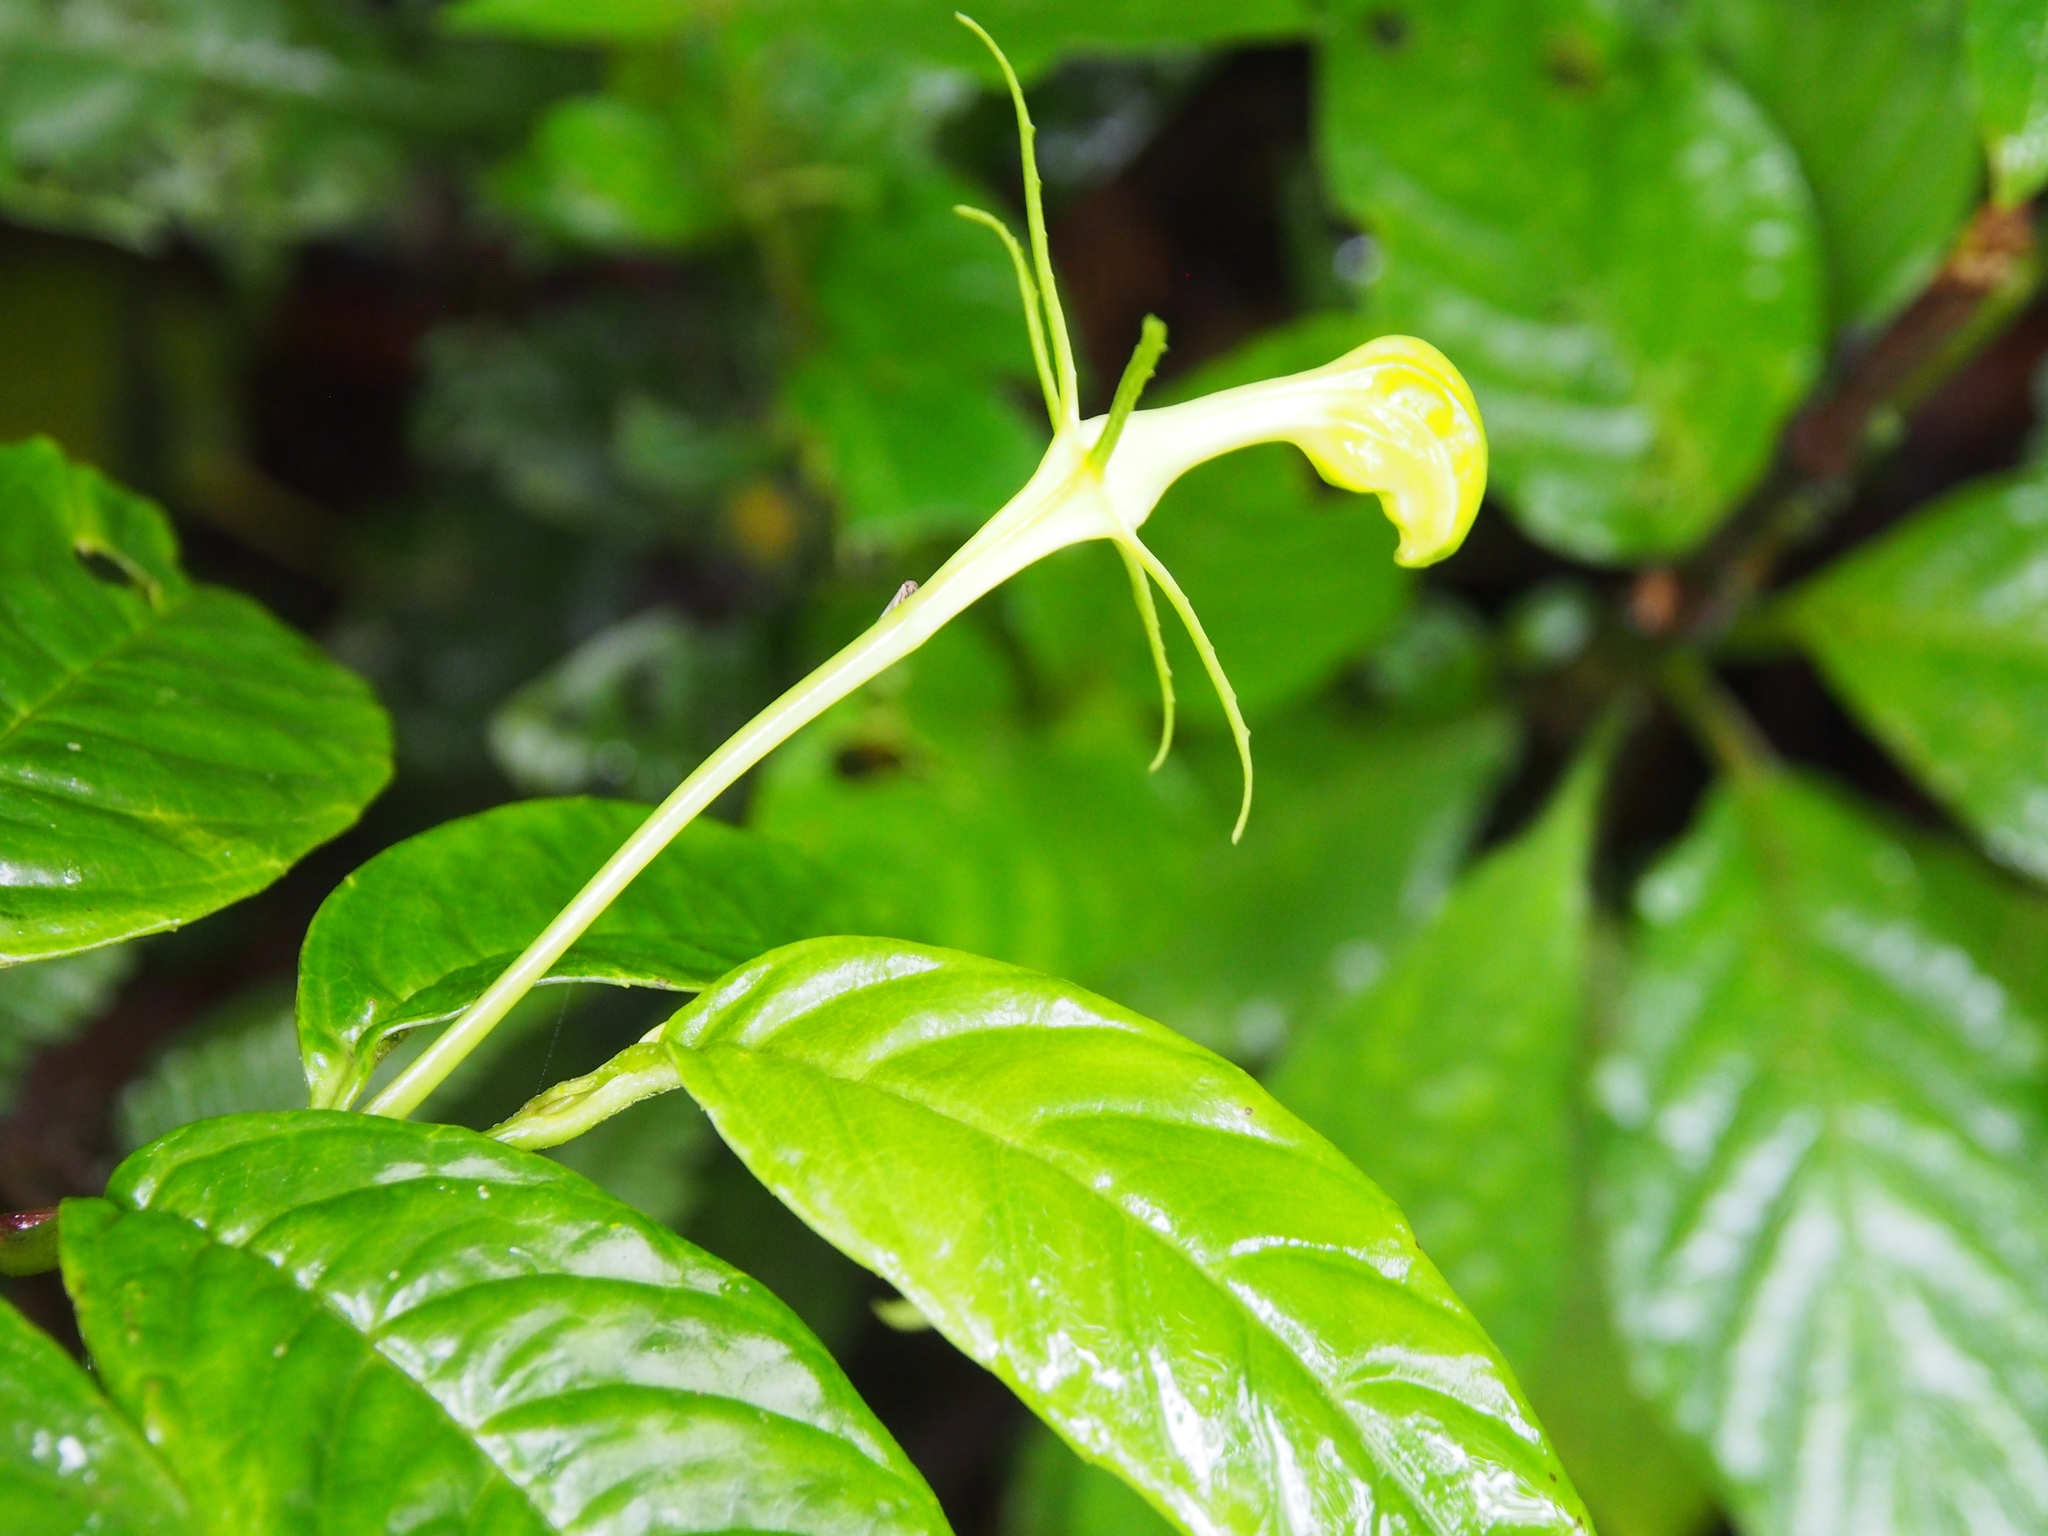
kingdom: Plantae
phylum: Tracheophyta
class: Magnoliopsida
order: Asterales
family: Campanulaceae
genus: Burmeistera
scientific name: Burmeistera tenuiflora
